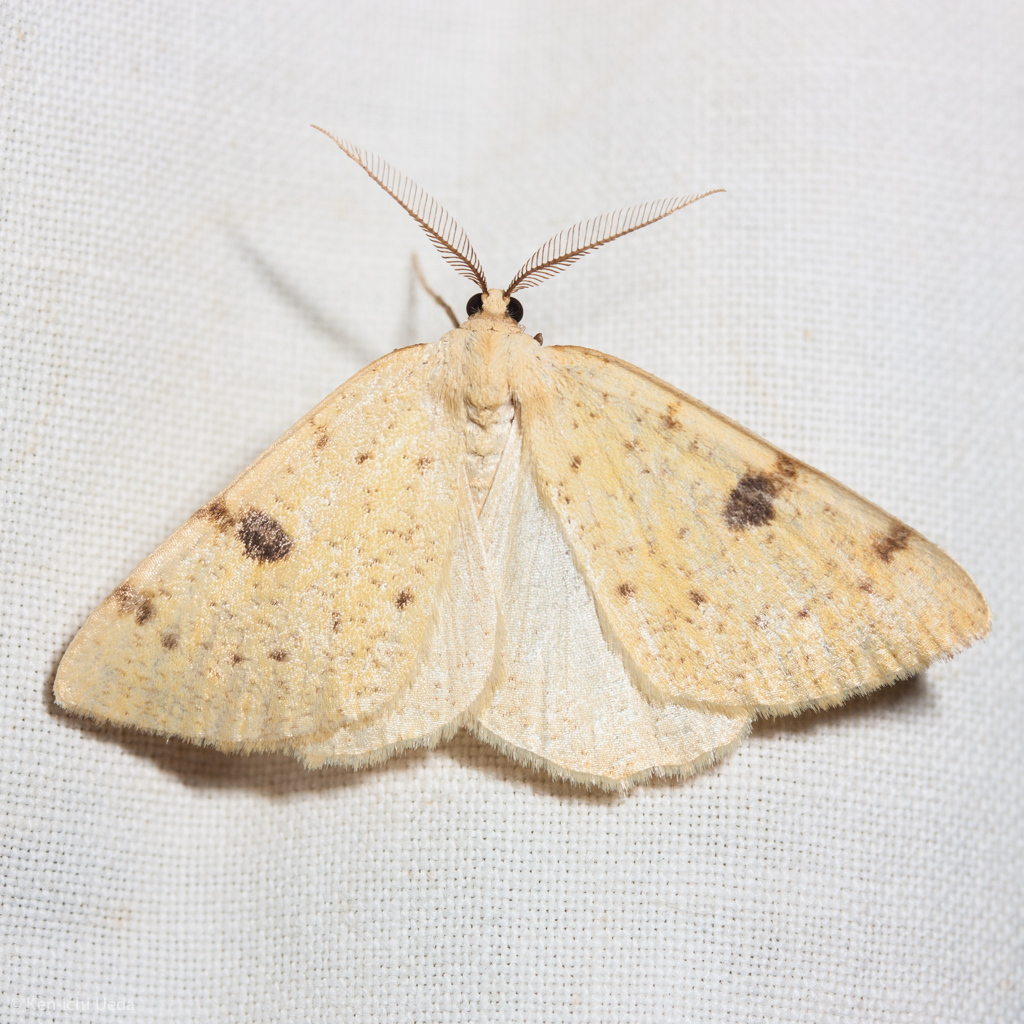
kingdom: Animalia
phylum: Arthropoda
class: Insecta
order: Lepidoptera
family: Geometridae
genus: Hesperumia
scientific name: Hesperumia sulphuraria
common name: Sulphur moth
